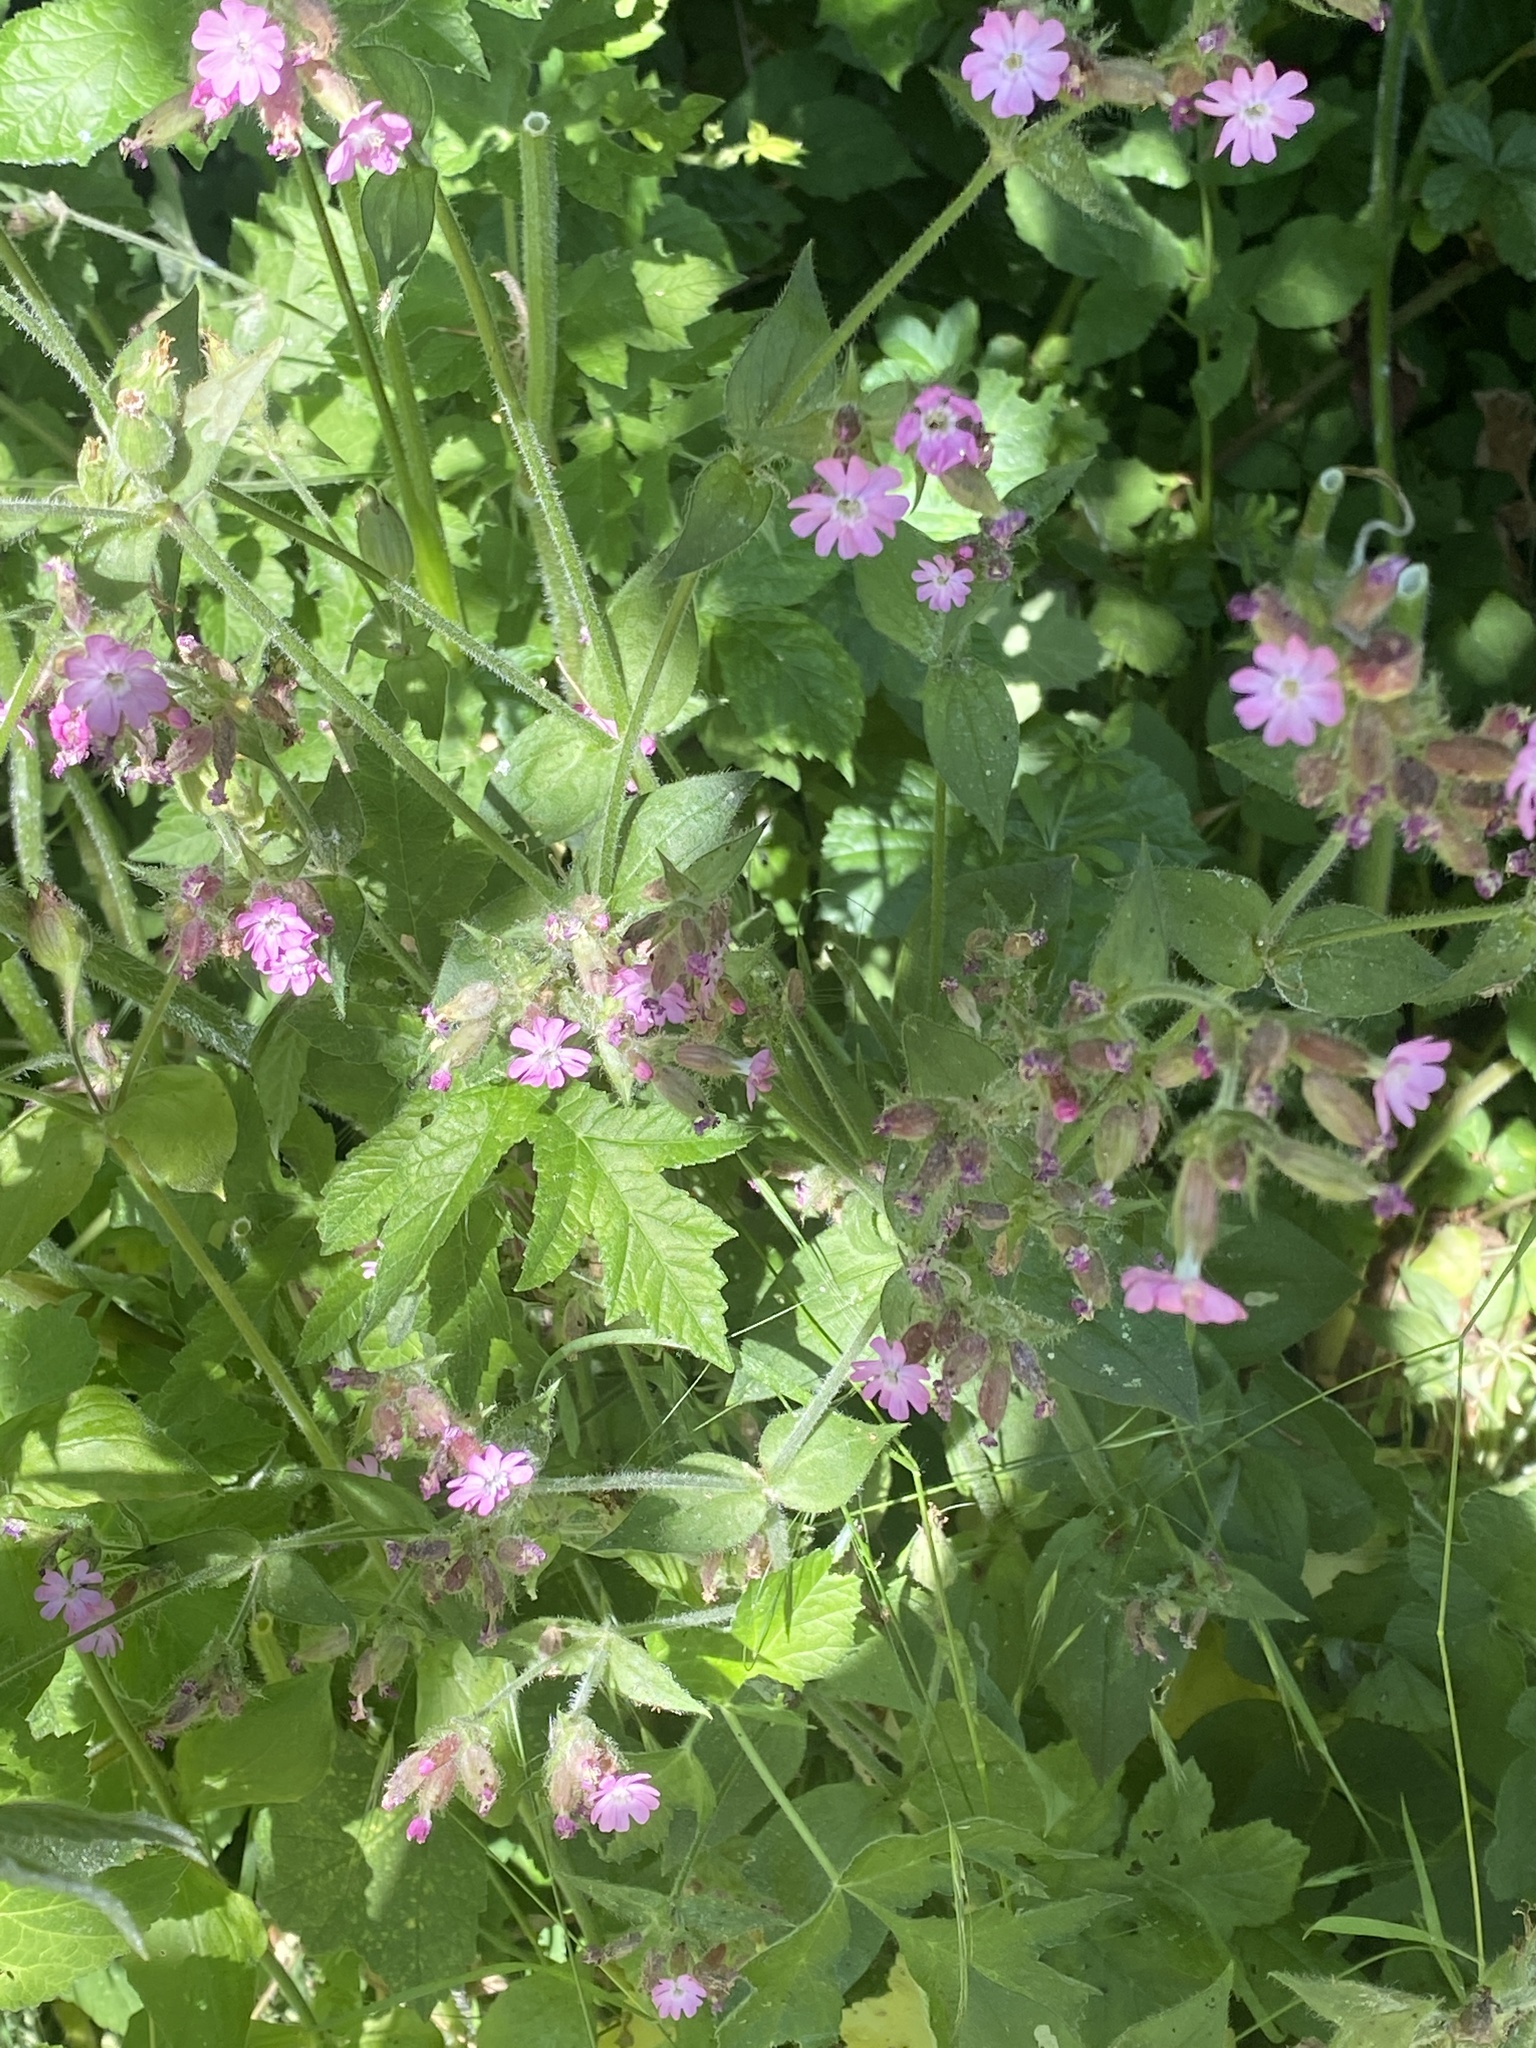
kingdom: Plantae
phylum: Tracheophyta
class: Magnoliopsida
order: Caryophyllales
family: Caryophyllaceae
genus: Silene
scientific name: Silene dioica
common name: Red campion
